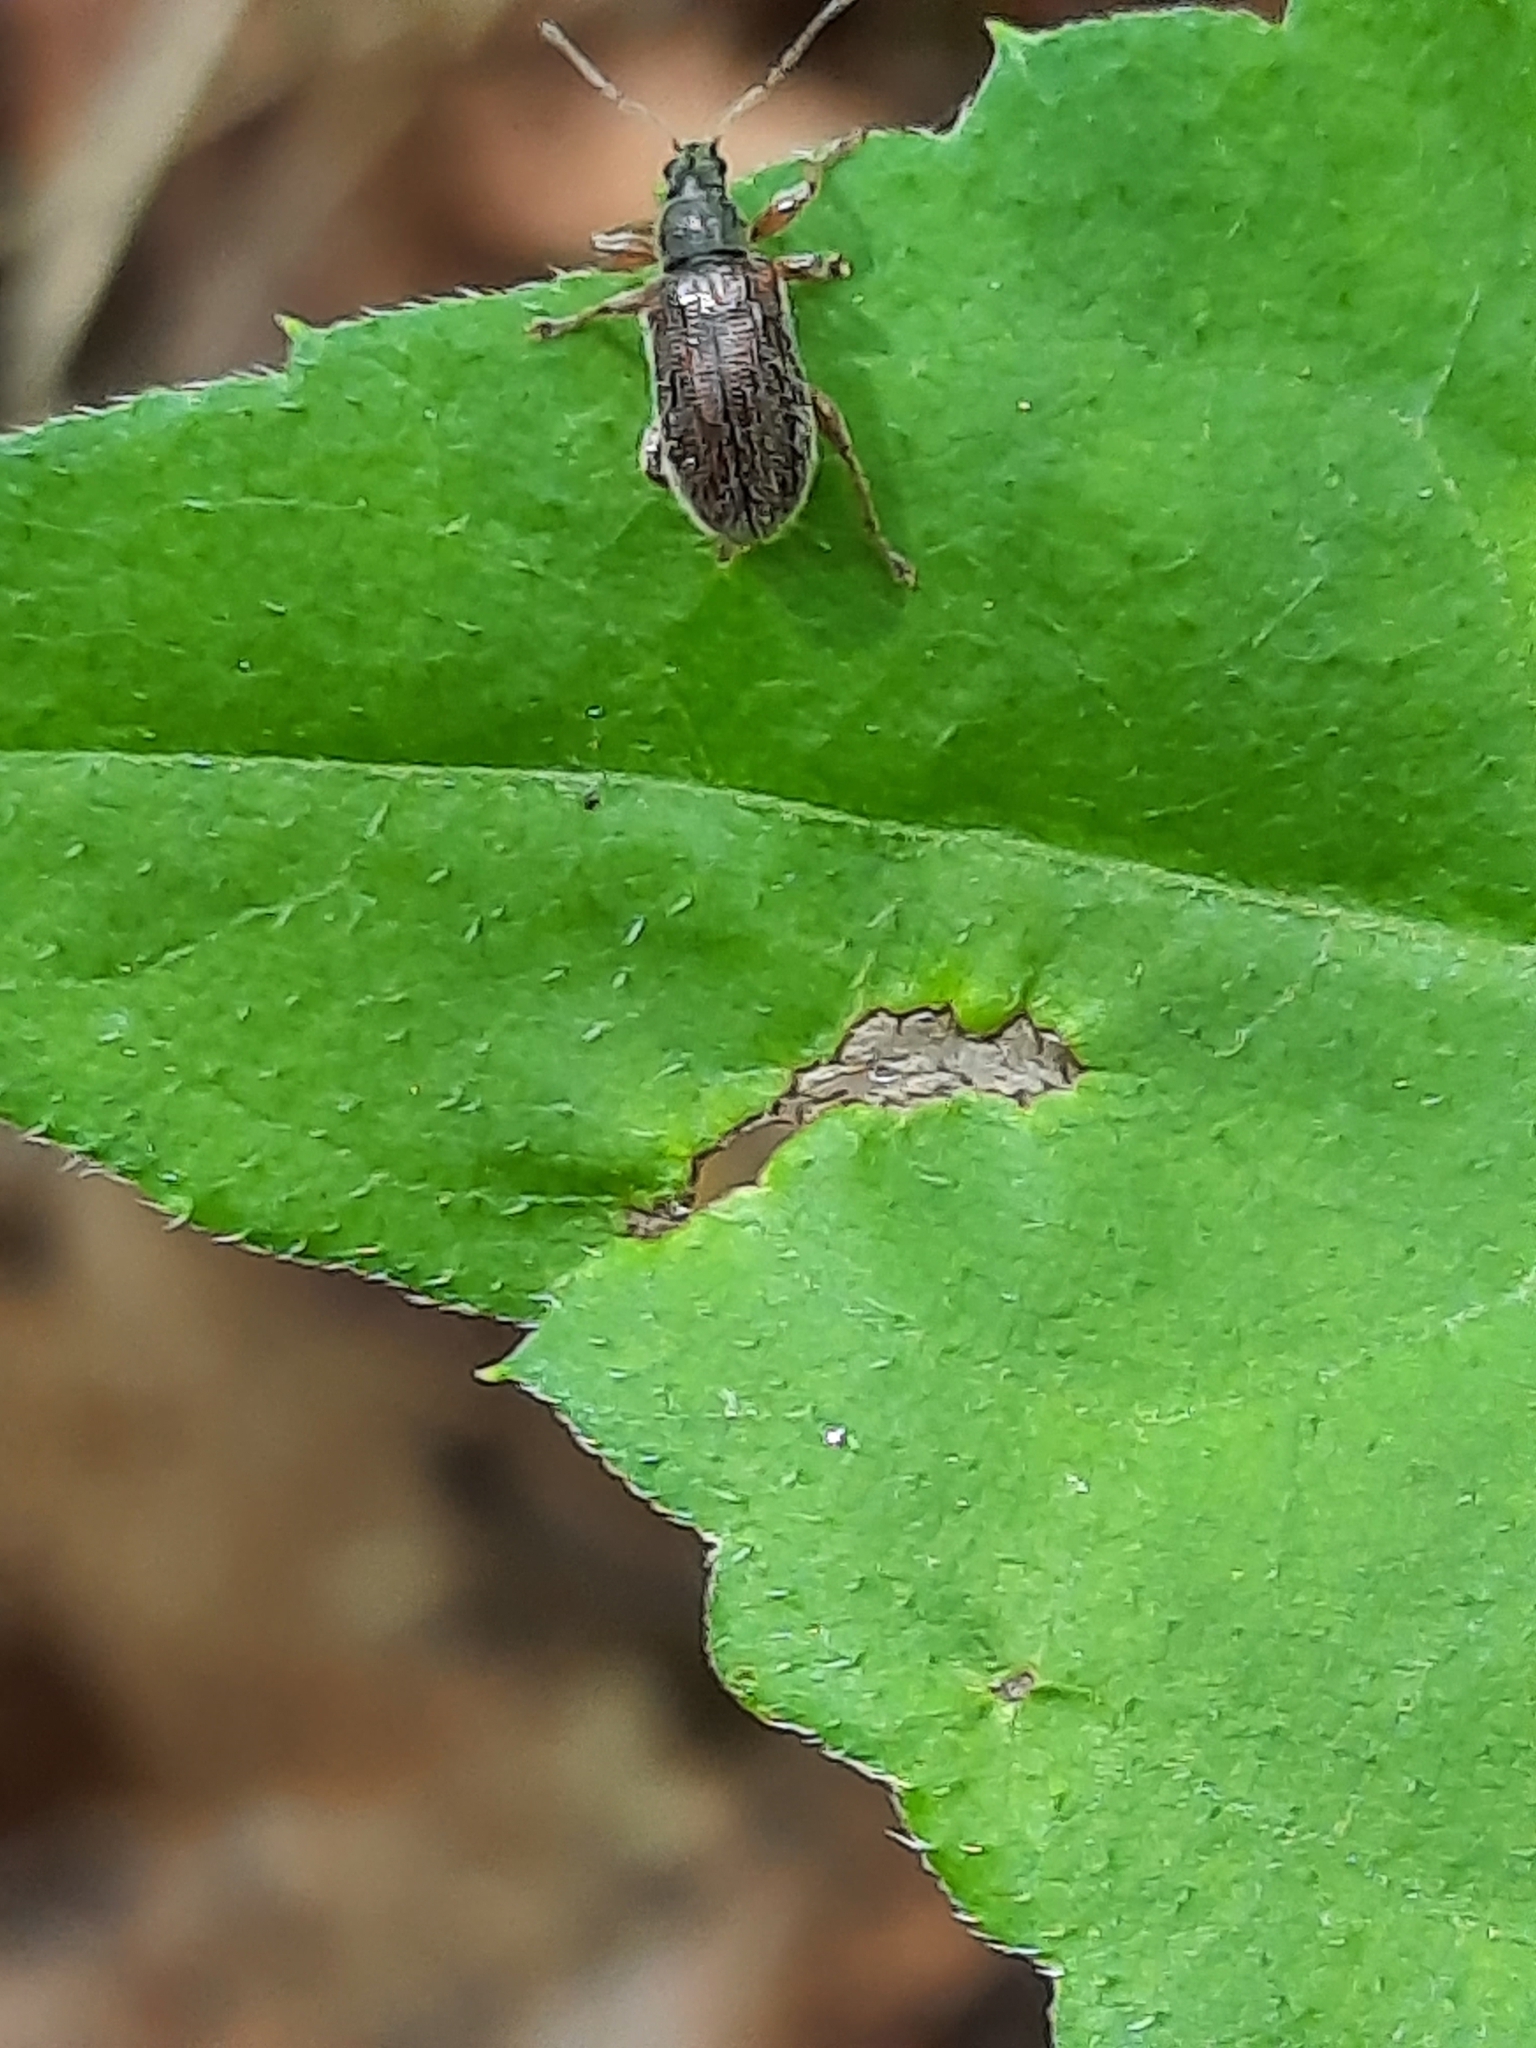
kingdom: Animalia
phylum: Arthropoda
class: Insecta
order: Coleoptera
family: Curculionidae
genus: Phyllobius
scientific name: Phyllobius oblongus
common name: Brown leaf weevil
